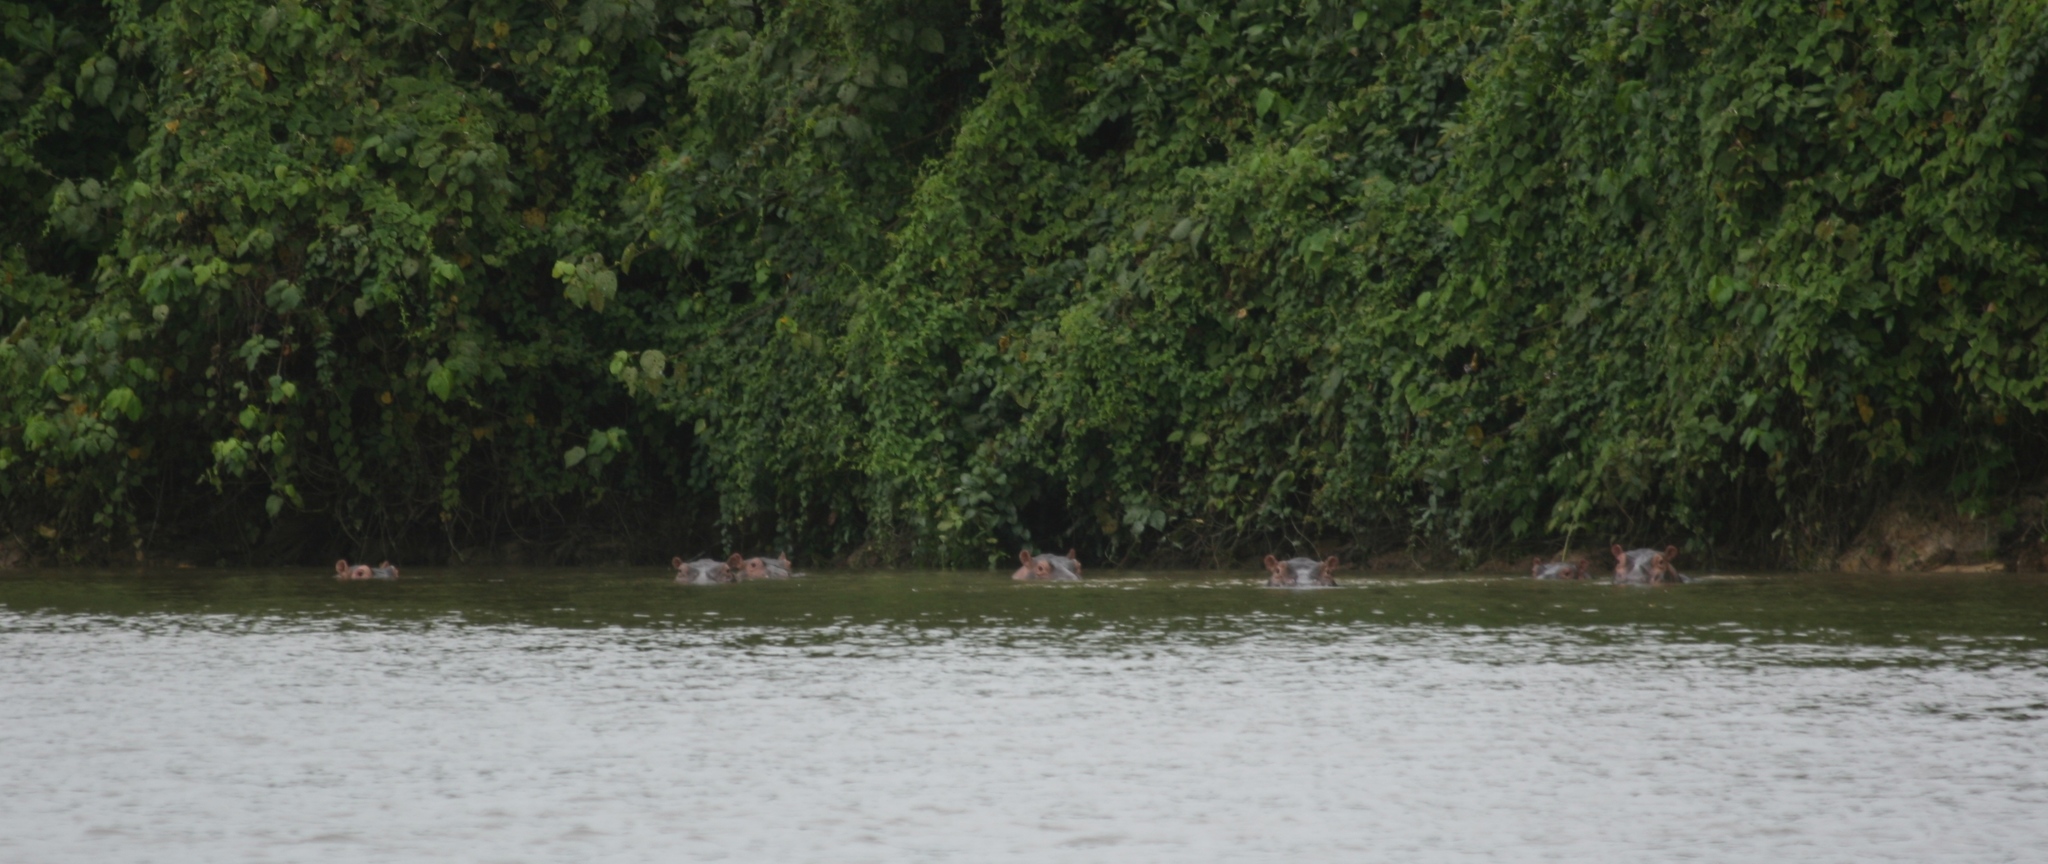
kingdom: Animalia
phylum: Chordata
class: Mammalia
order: Artiodactyla
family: Hippopotamidae
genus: Hippopotamus
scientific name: Hippopotamus amphibius
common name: Common hippopotamus
